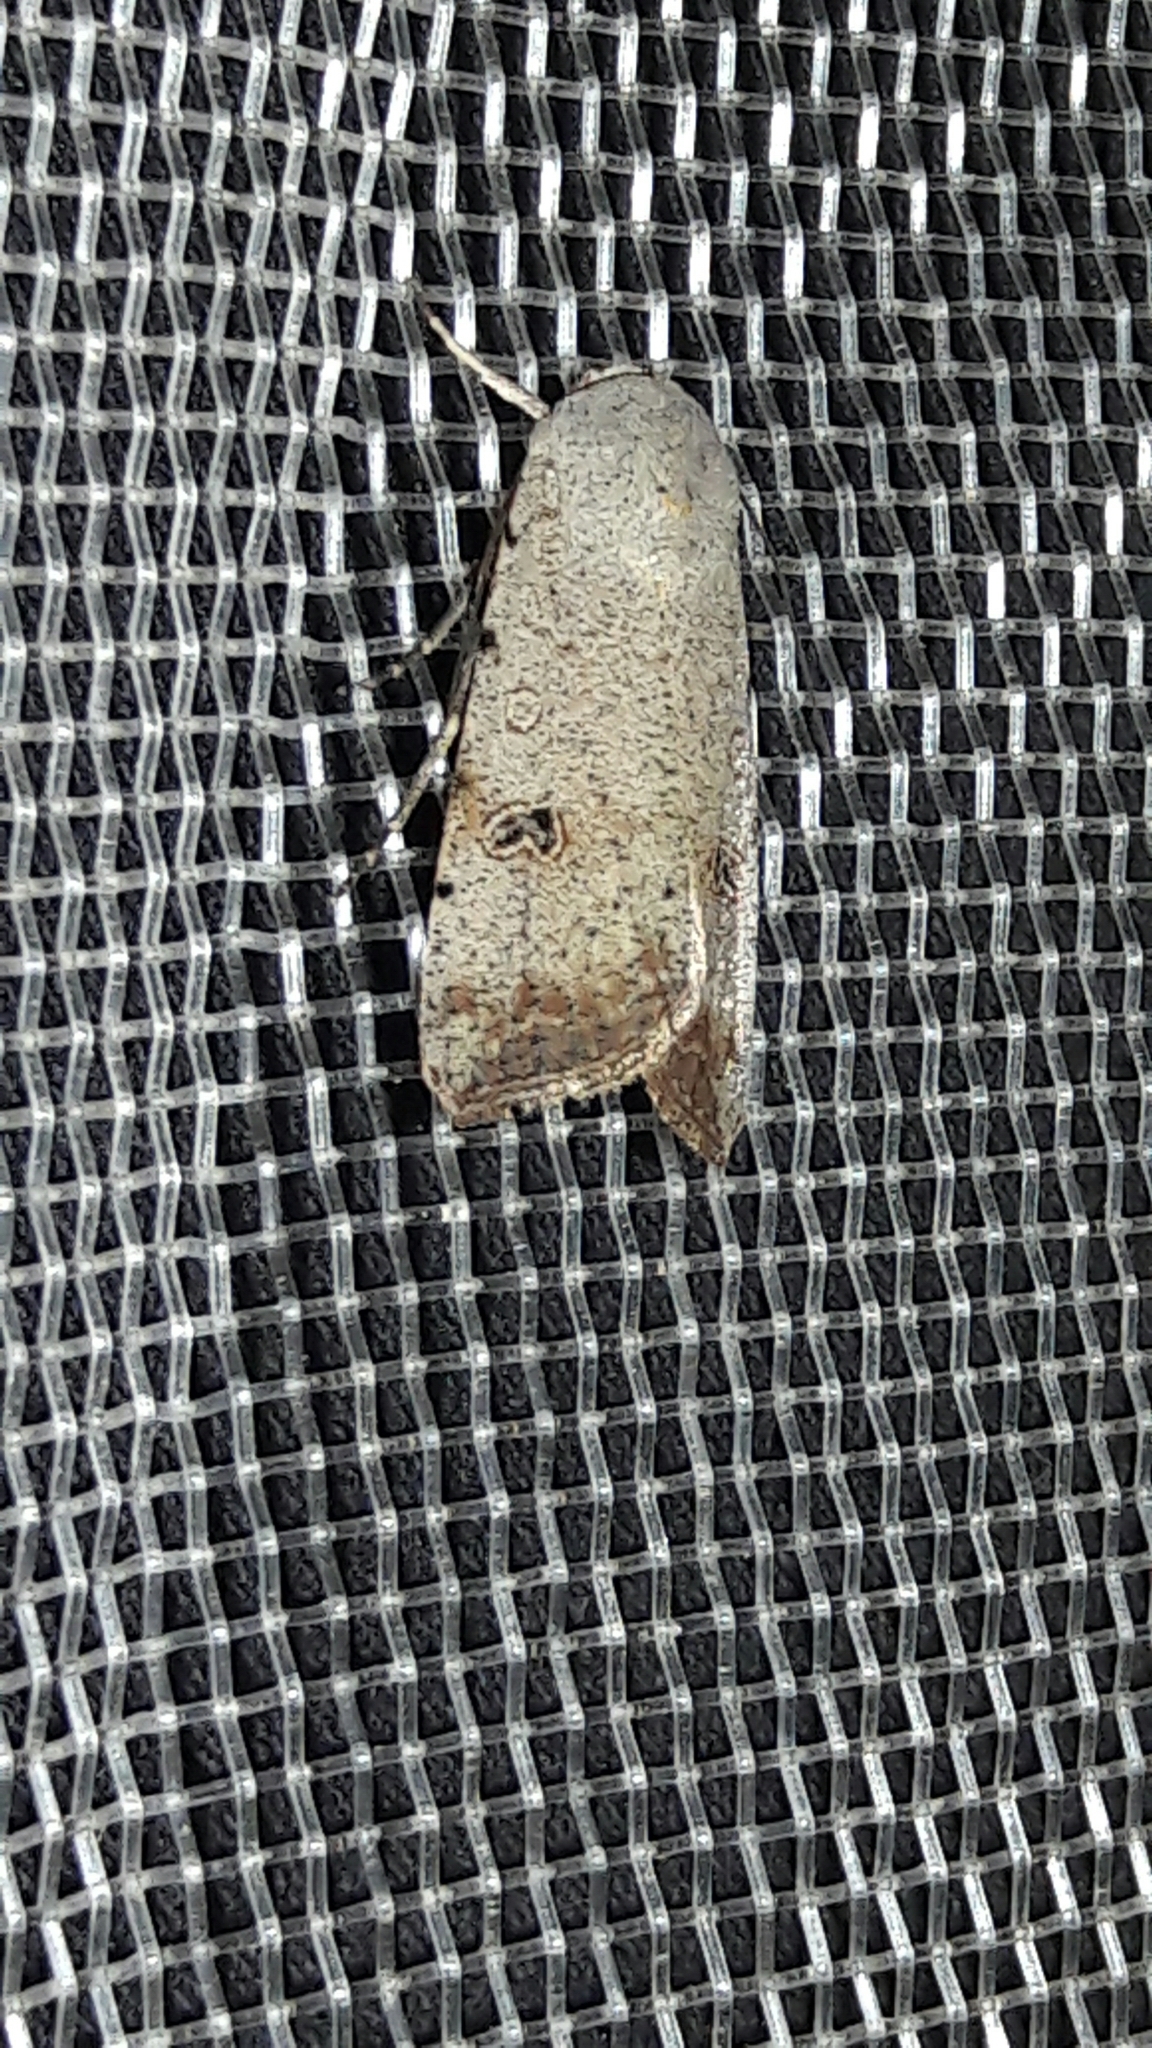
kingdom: Animalia
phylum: Arthropoda
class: Insecta
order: Lepidoptera
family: Noctuidae
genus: Anicla
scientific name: Anicla infecta
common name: Green cutworm
